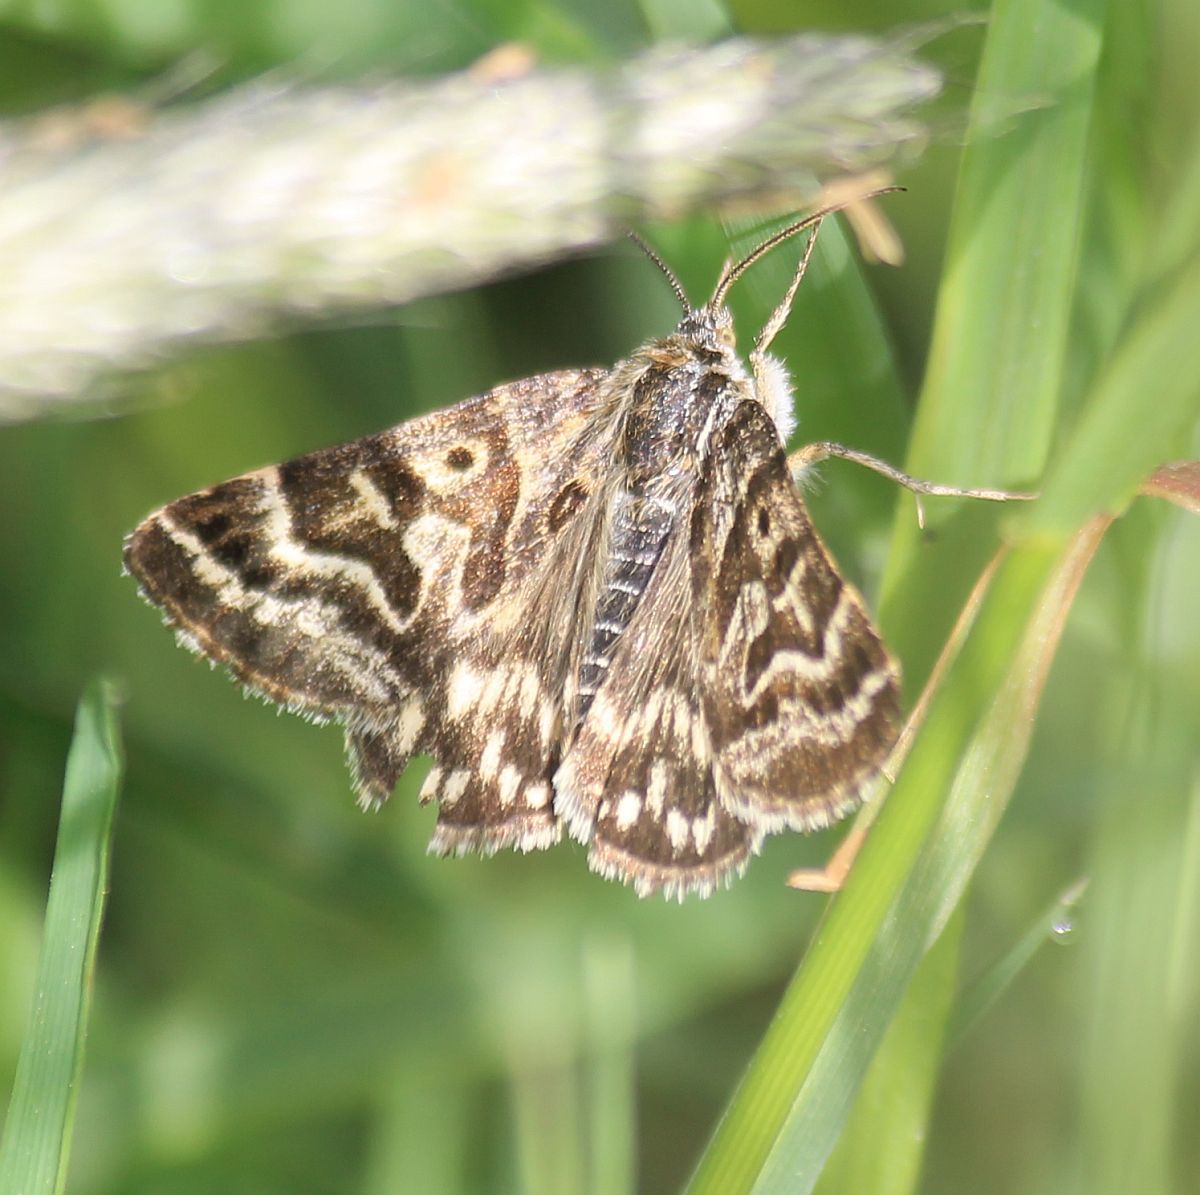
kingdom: Animalia
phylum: Arthropoda
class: Insecta
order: Lepidoptera
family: Erebidae
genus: Callistege
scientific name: Callistege mi
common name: Mother shipton
